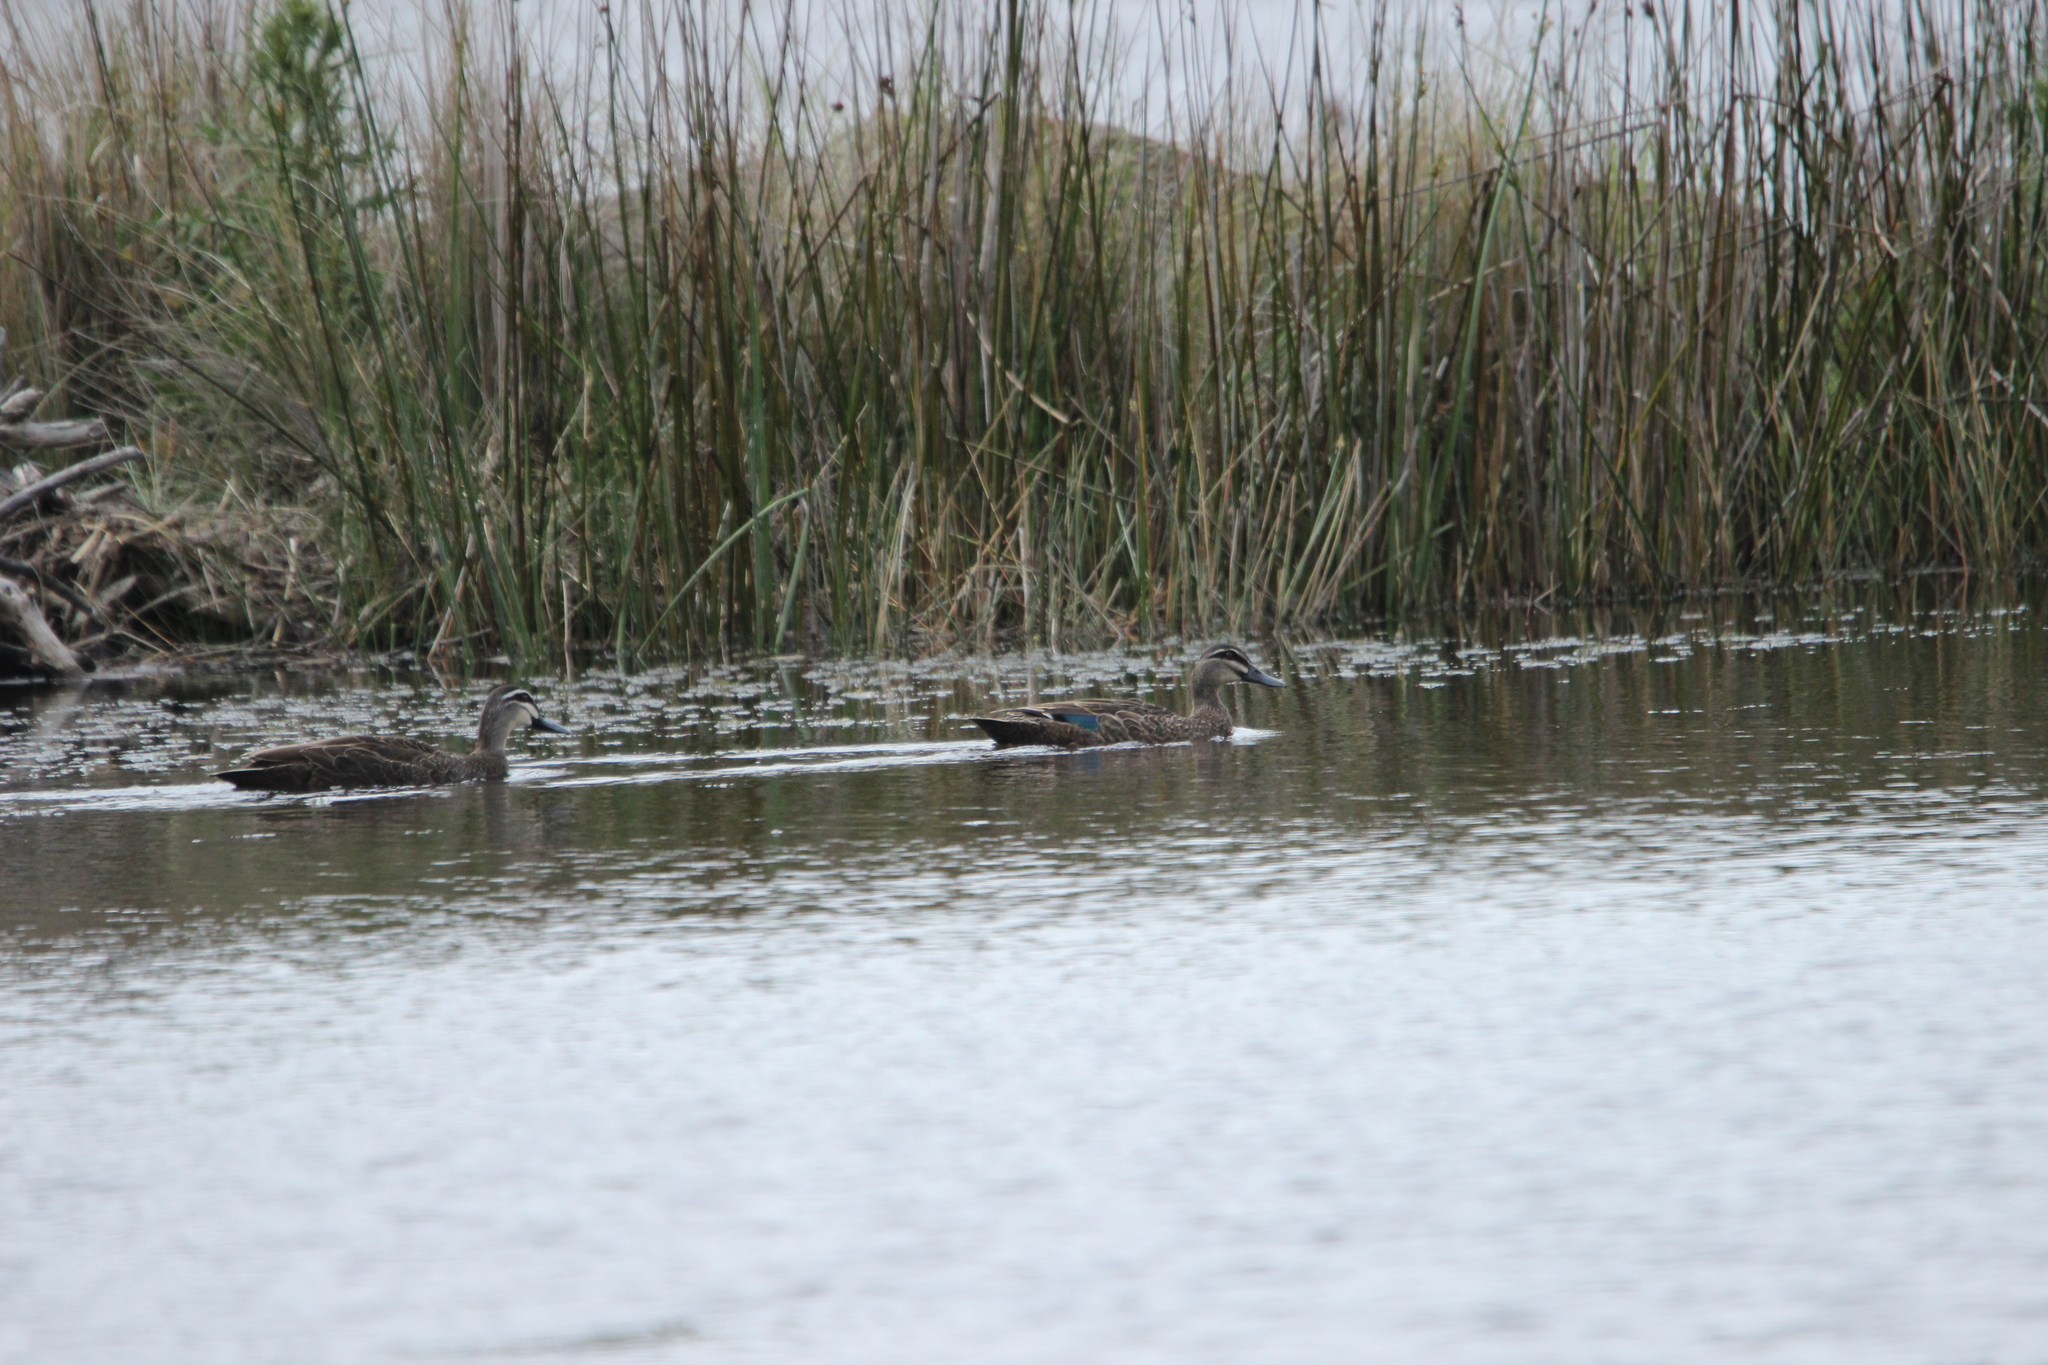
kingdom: Animalia
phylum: Chordata
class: Aves
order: Anseriformes
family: Anatidae
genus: Anas
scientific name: Anas
